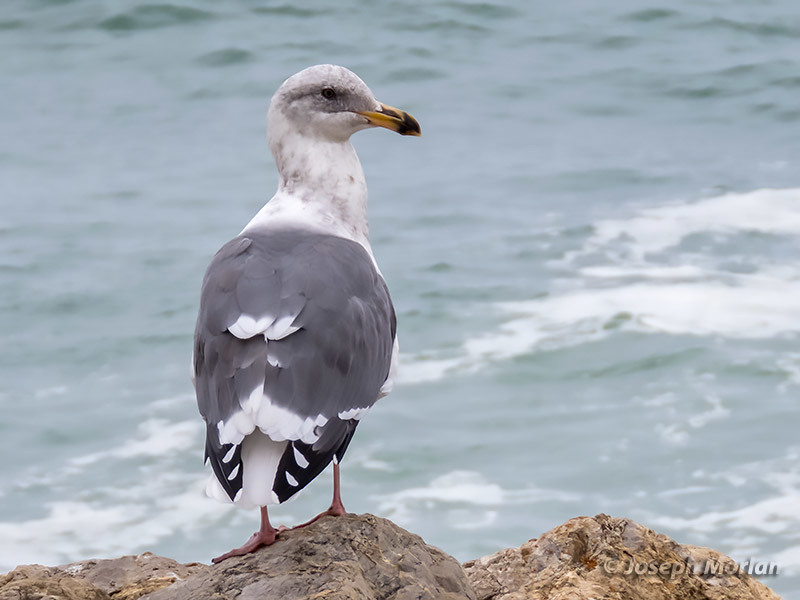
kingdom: Animalia
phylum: Chordata
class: Aves
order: Charadriiformes
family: Laridae
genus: Larus
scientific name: Larus occidentalis
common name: Western gull
